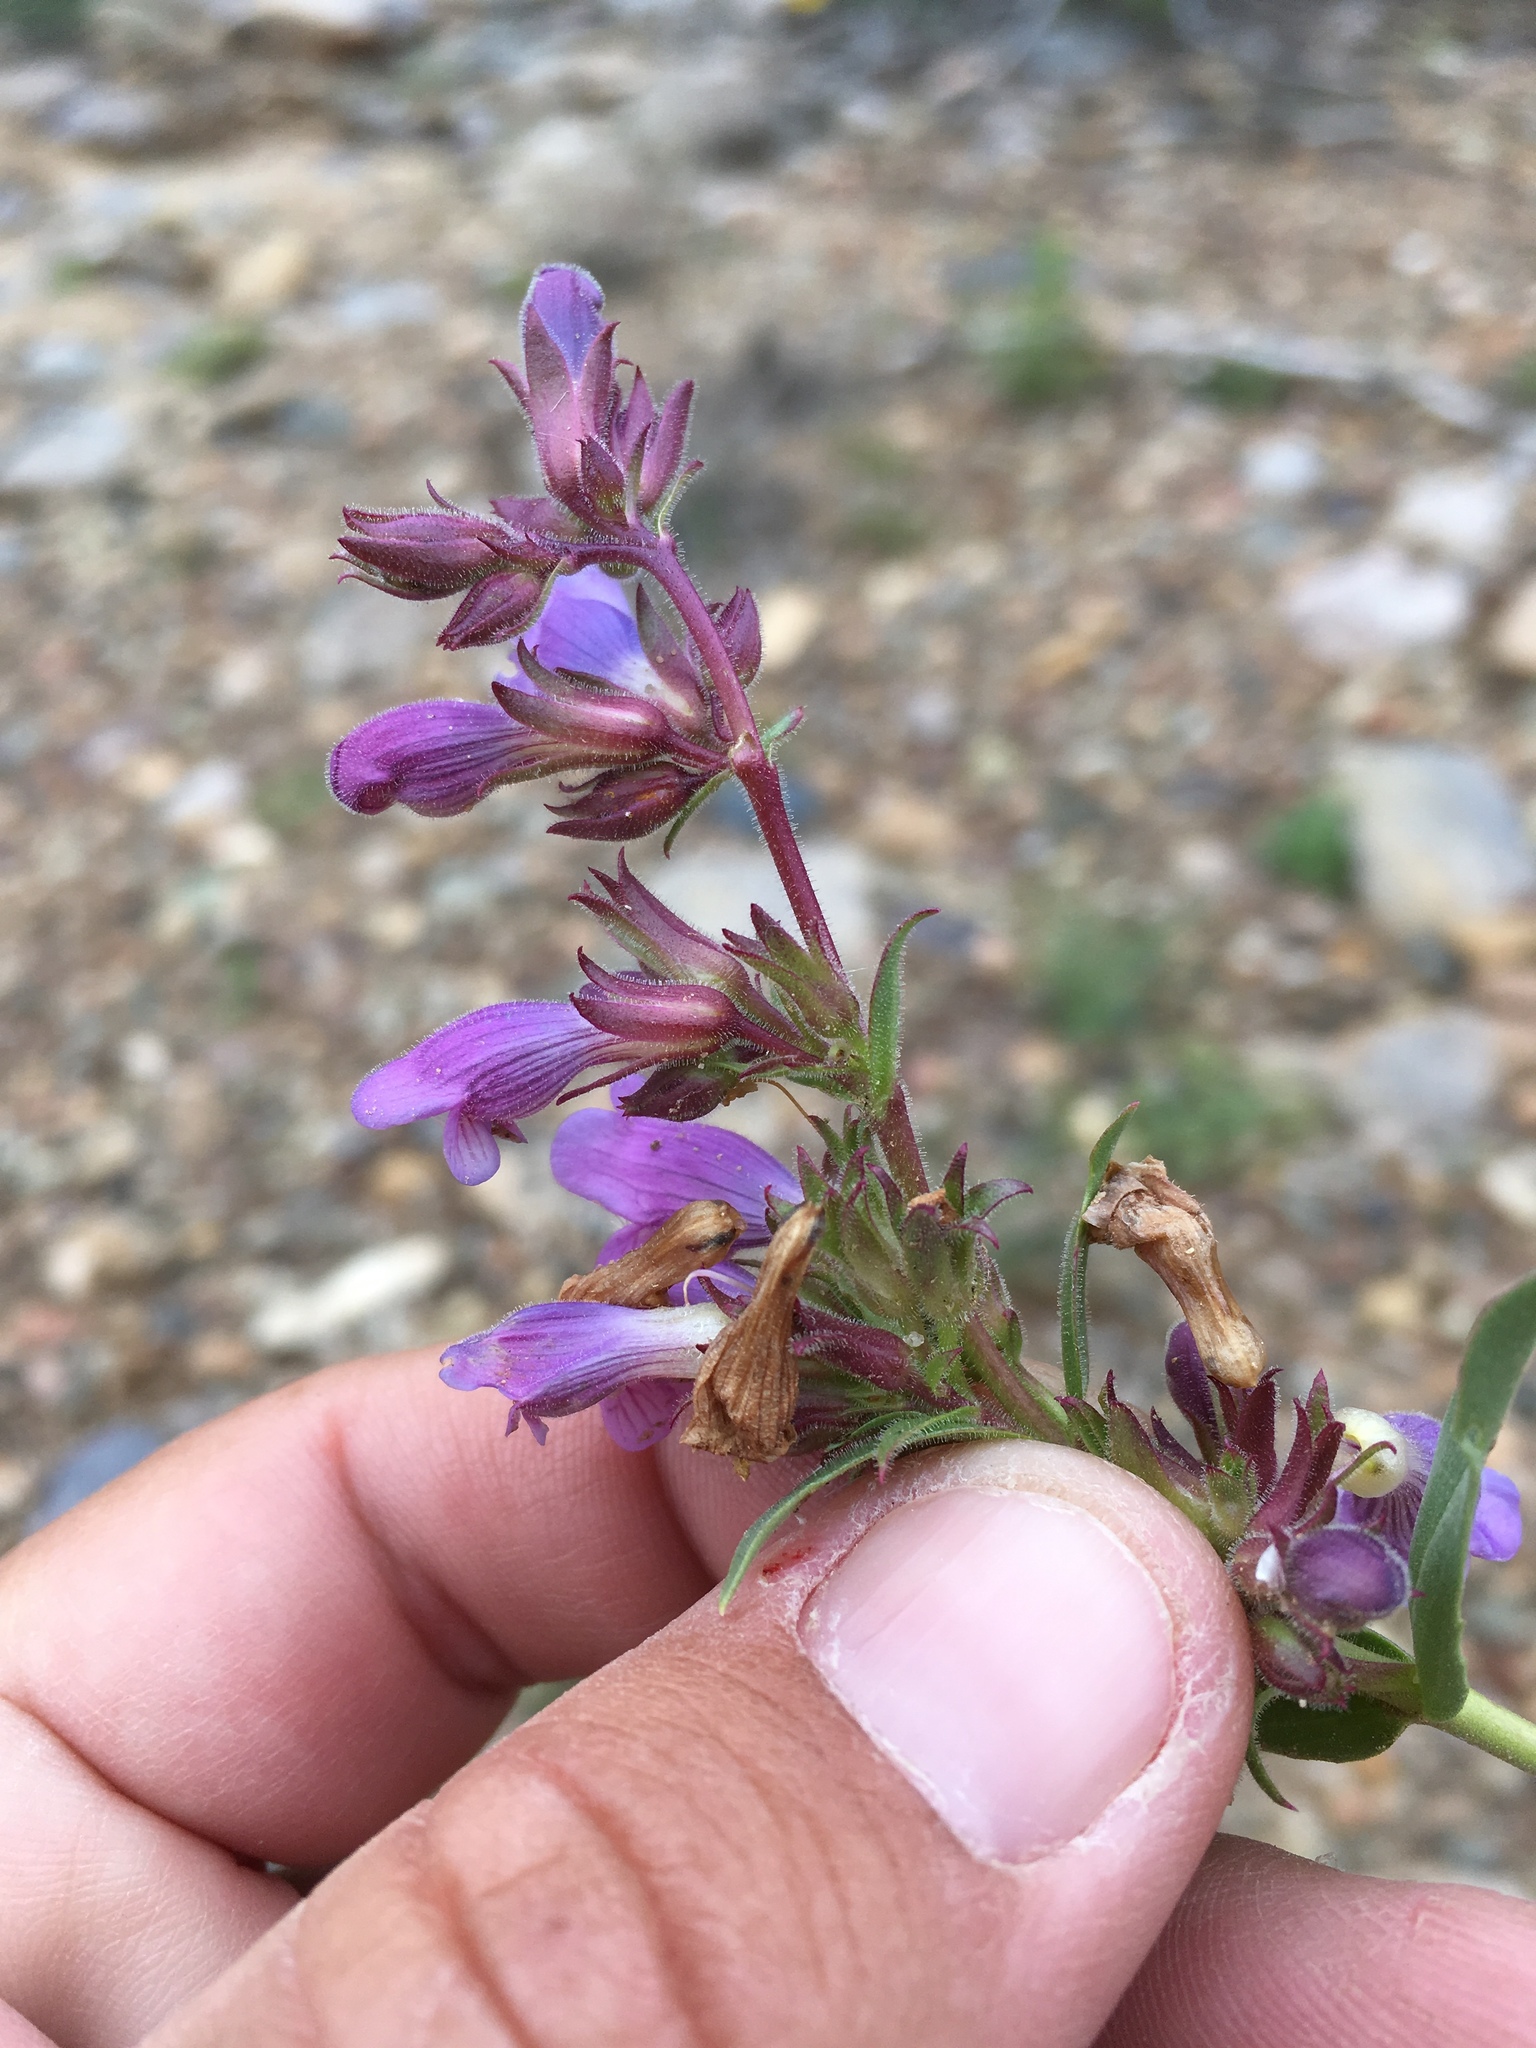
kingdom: Plantae
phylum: Tracheophyta
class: Magnoliopsida
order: Lamiales
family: Plantaginaceae
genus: Penstemon
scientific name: Penstemon breviculus
